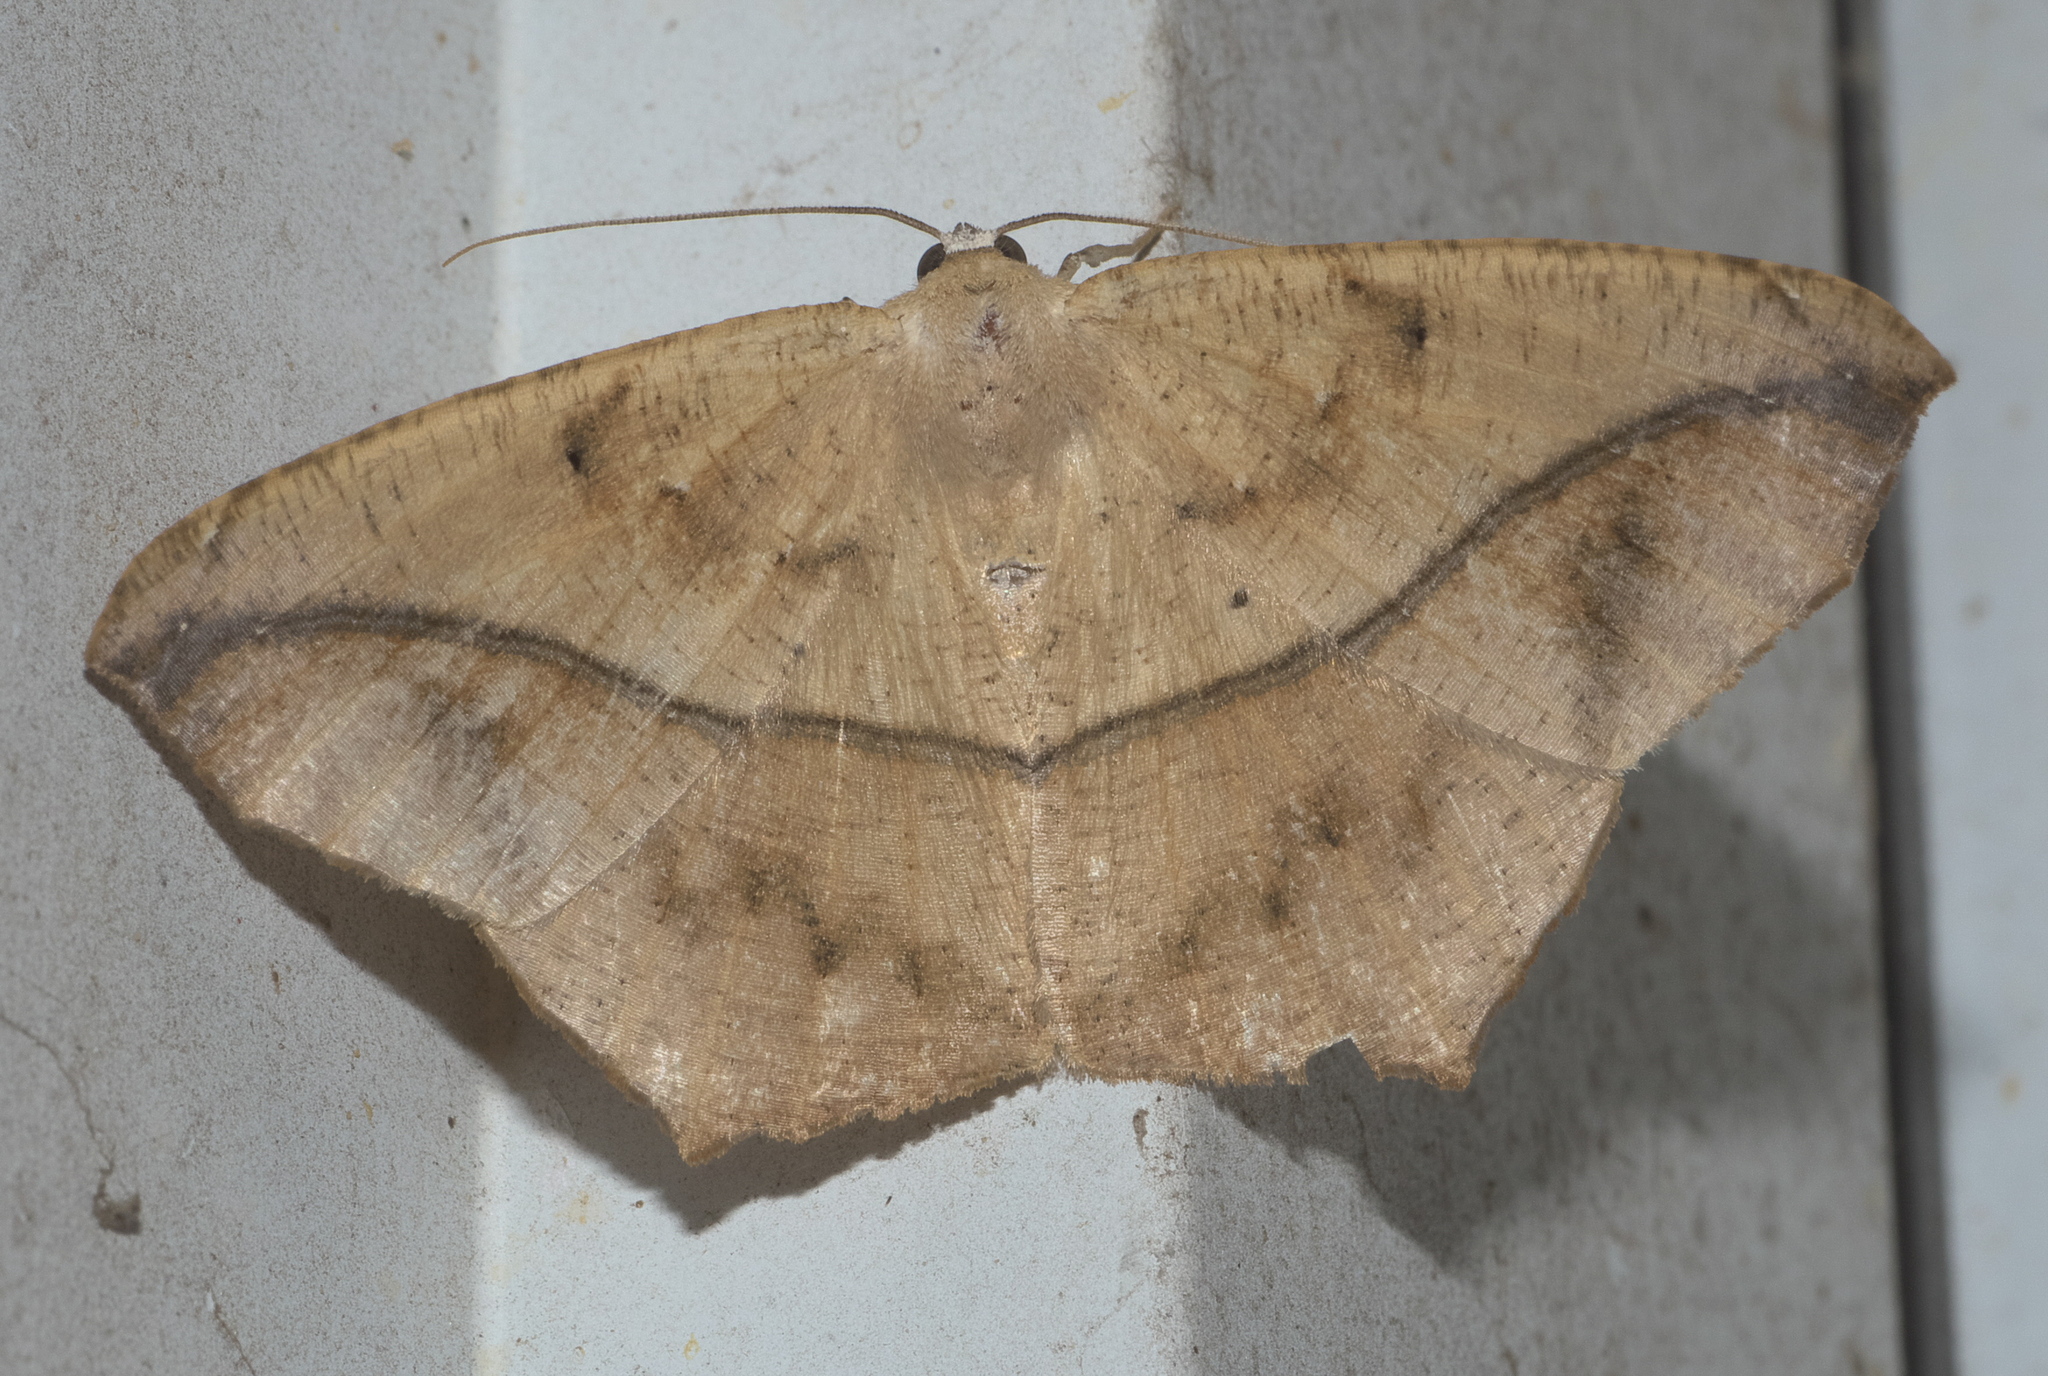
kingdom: Animalia
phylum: Arthropoda
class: Insecta
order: Lepidoptera
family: Geometridae
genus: Prochoerodes
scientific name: Prochoerodes lineola
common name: Large maple spanworm
